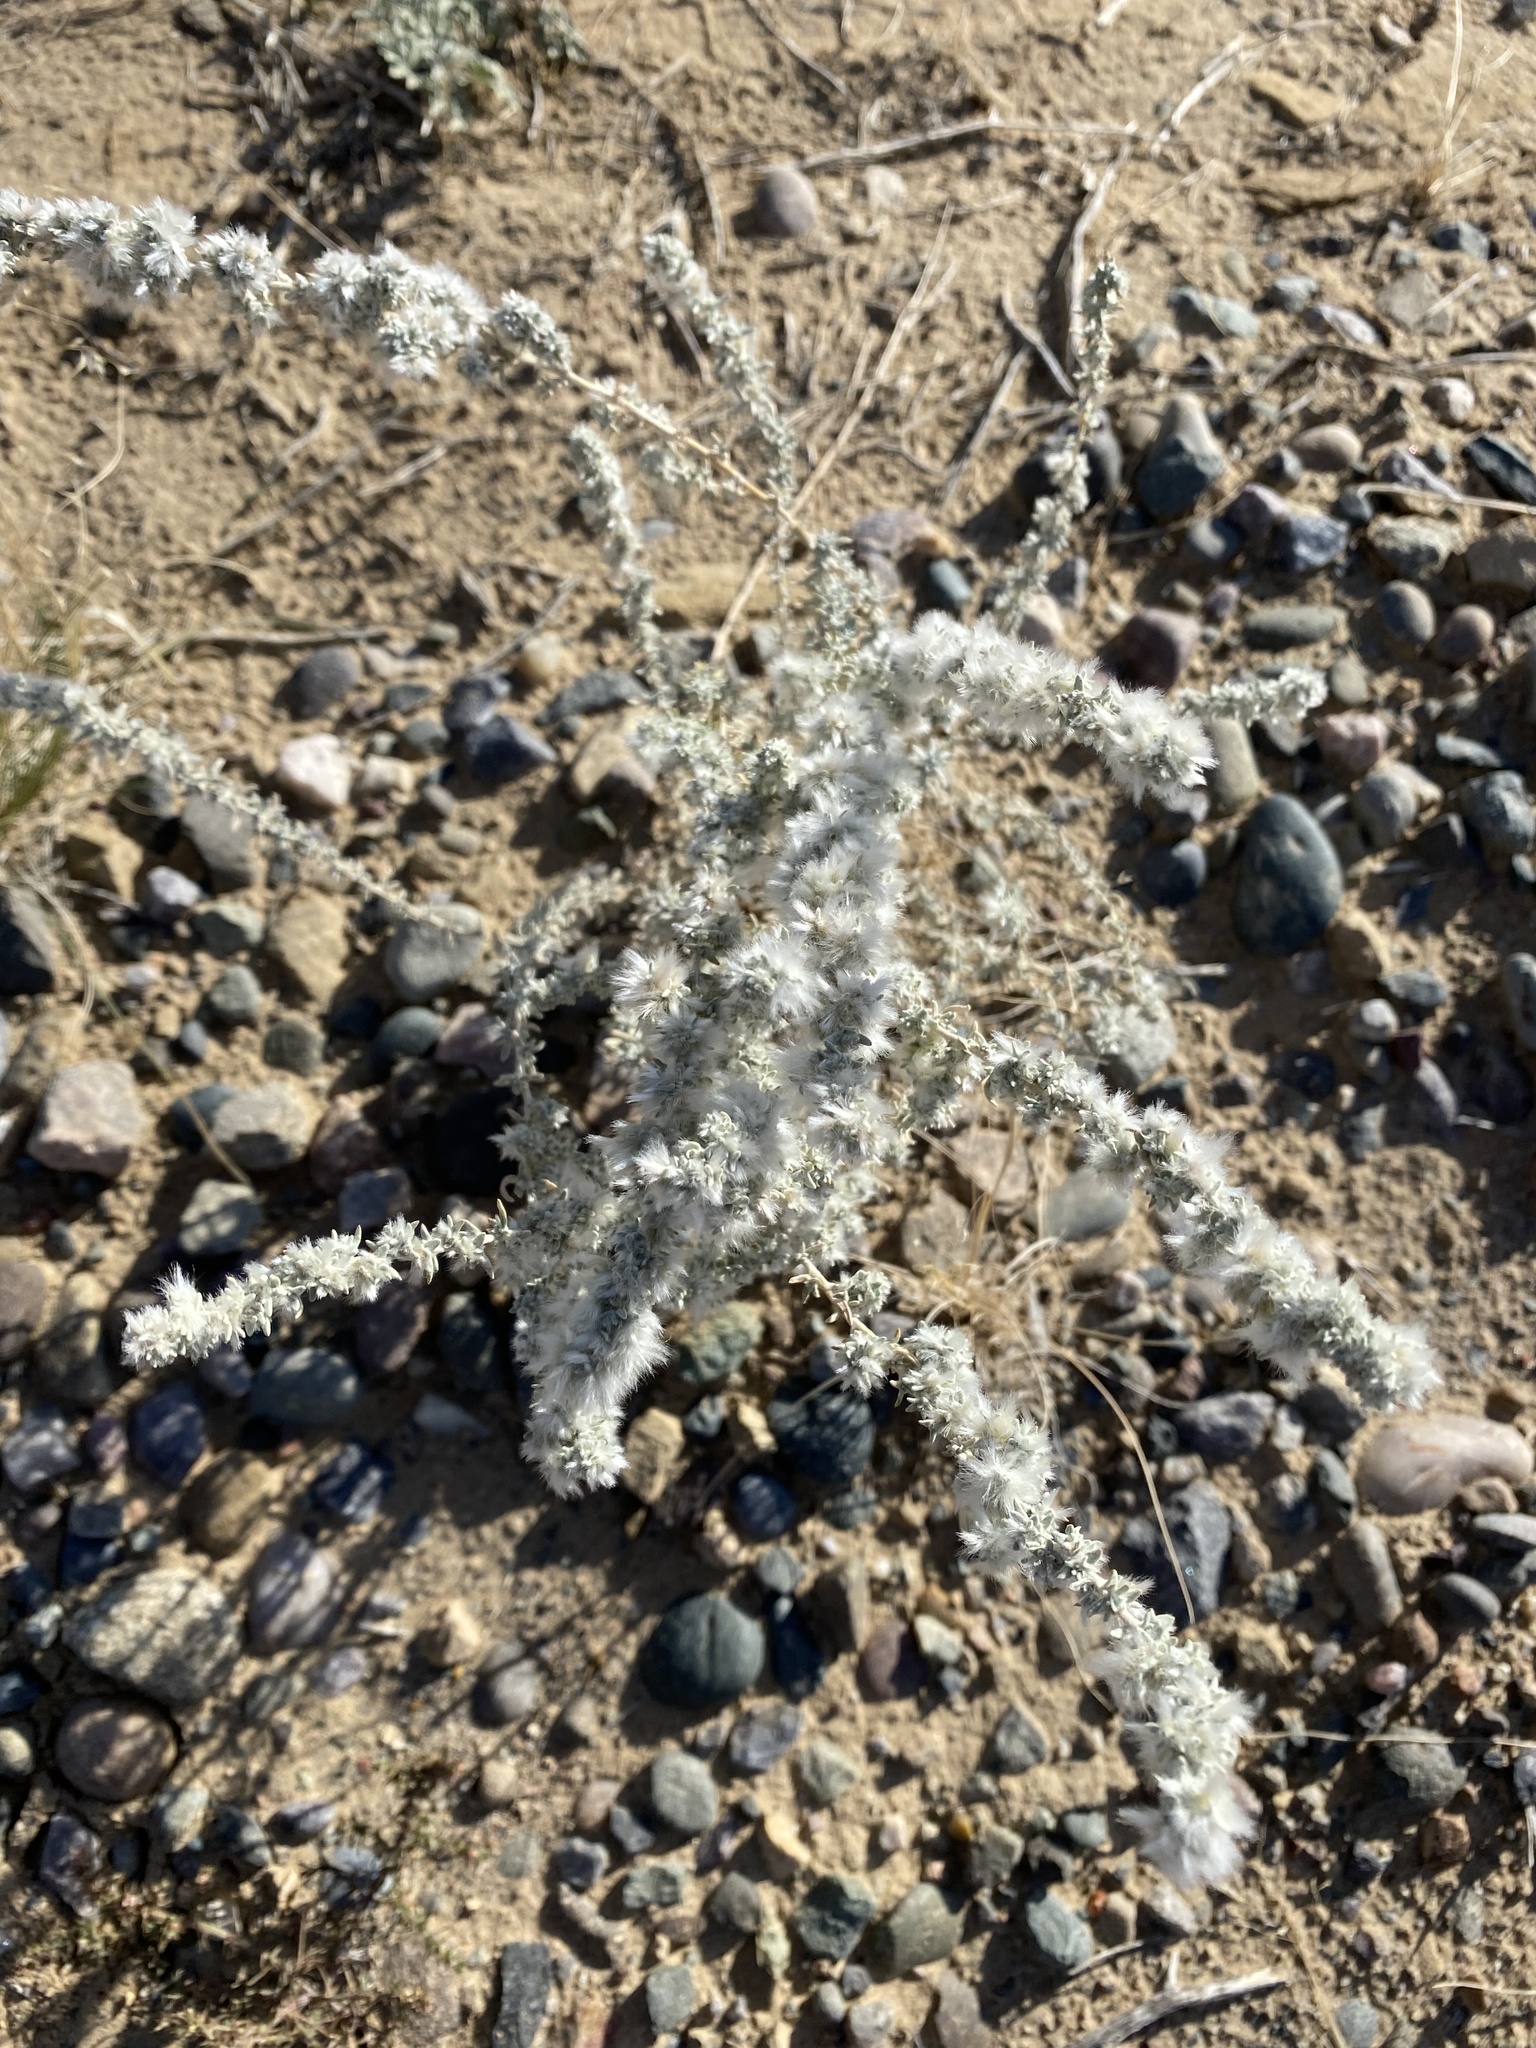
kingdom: Plantae
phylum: Tracheophyta
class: Magnoliopsida
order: Caryophyllales
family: Amaranthaceae
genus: Krascheninnikovia
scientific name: Krascheninnikovia lanata
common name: Winterfat
